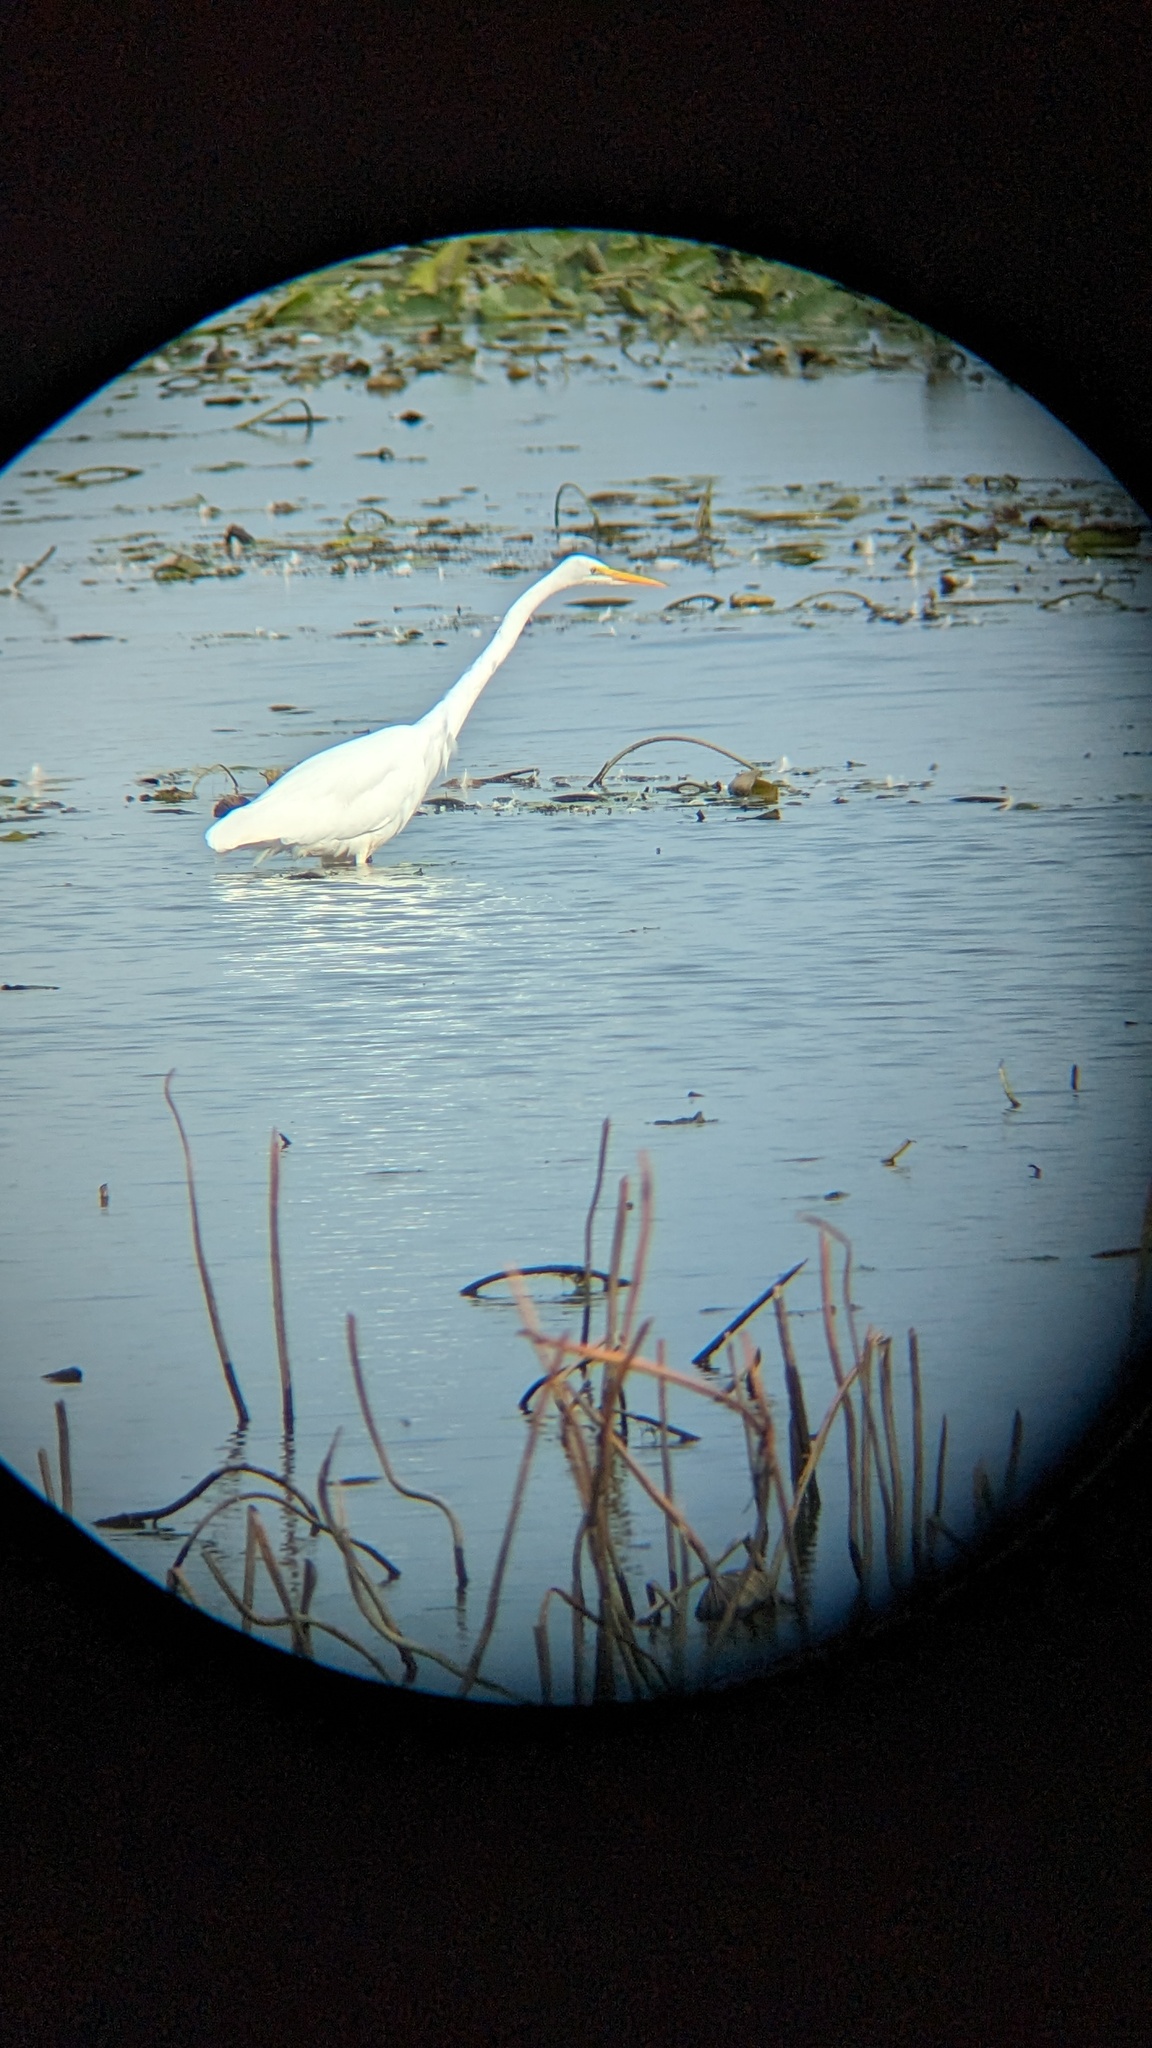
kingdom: Animalia
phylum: Chordata
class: Aves
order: Pelecaniformes
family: Ardeidae
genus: Ardea
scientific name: Ardea alba
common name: Great egret
